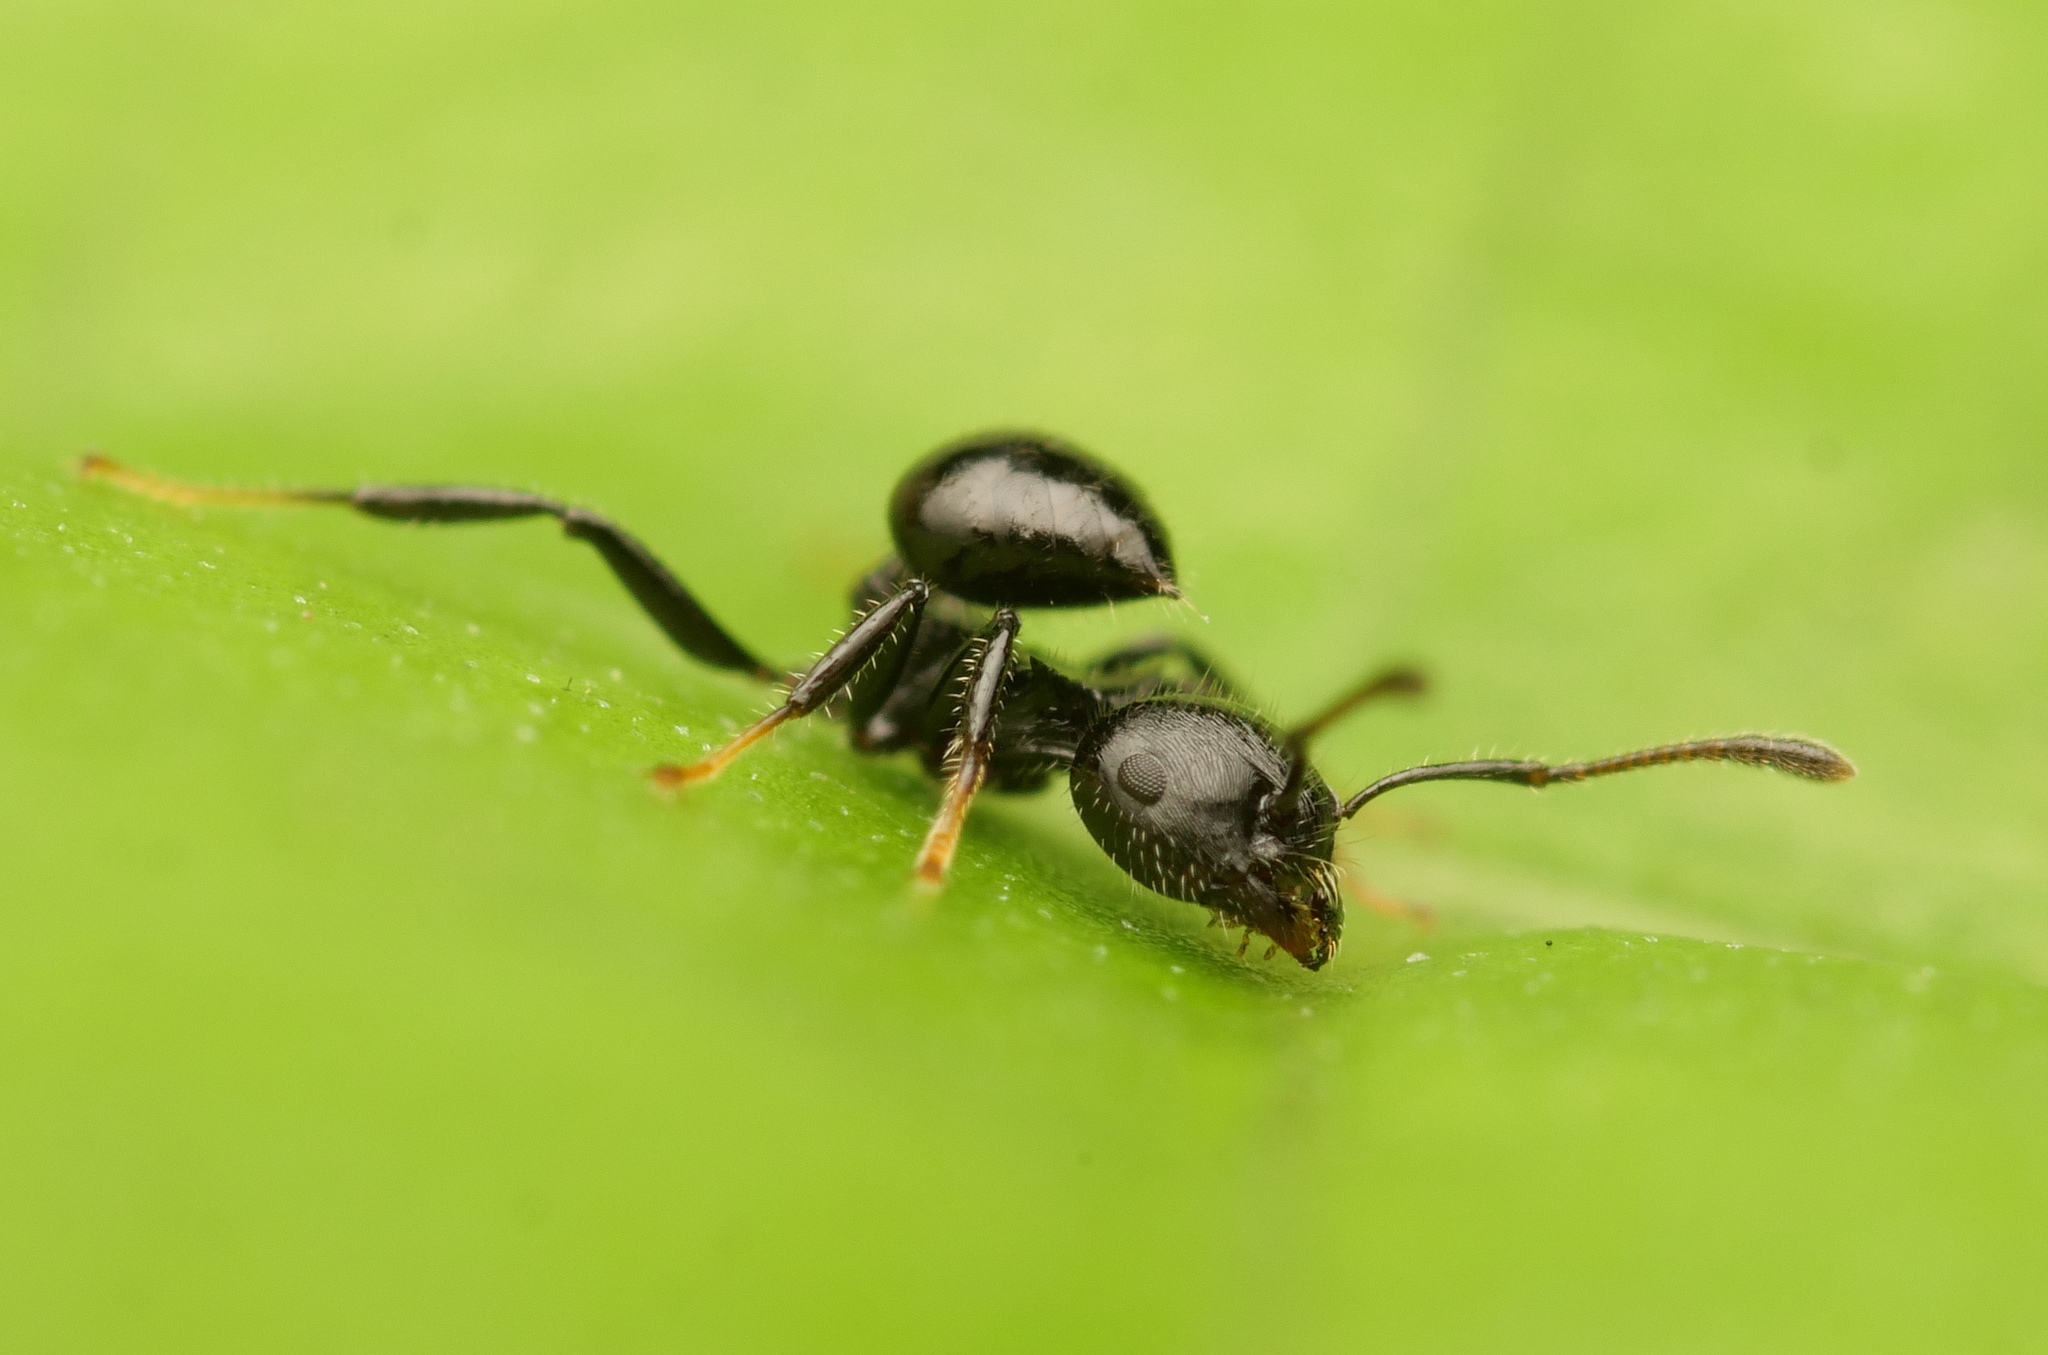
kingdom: Animalia
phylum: Arthropoda
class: Insecta
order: Hymenoptera
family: Formicidae
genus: Crematogaster
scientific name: Crematogaster flavitarsis
